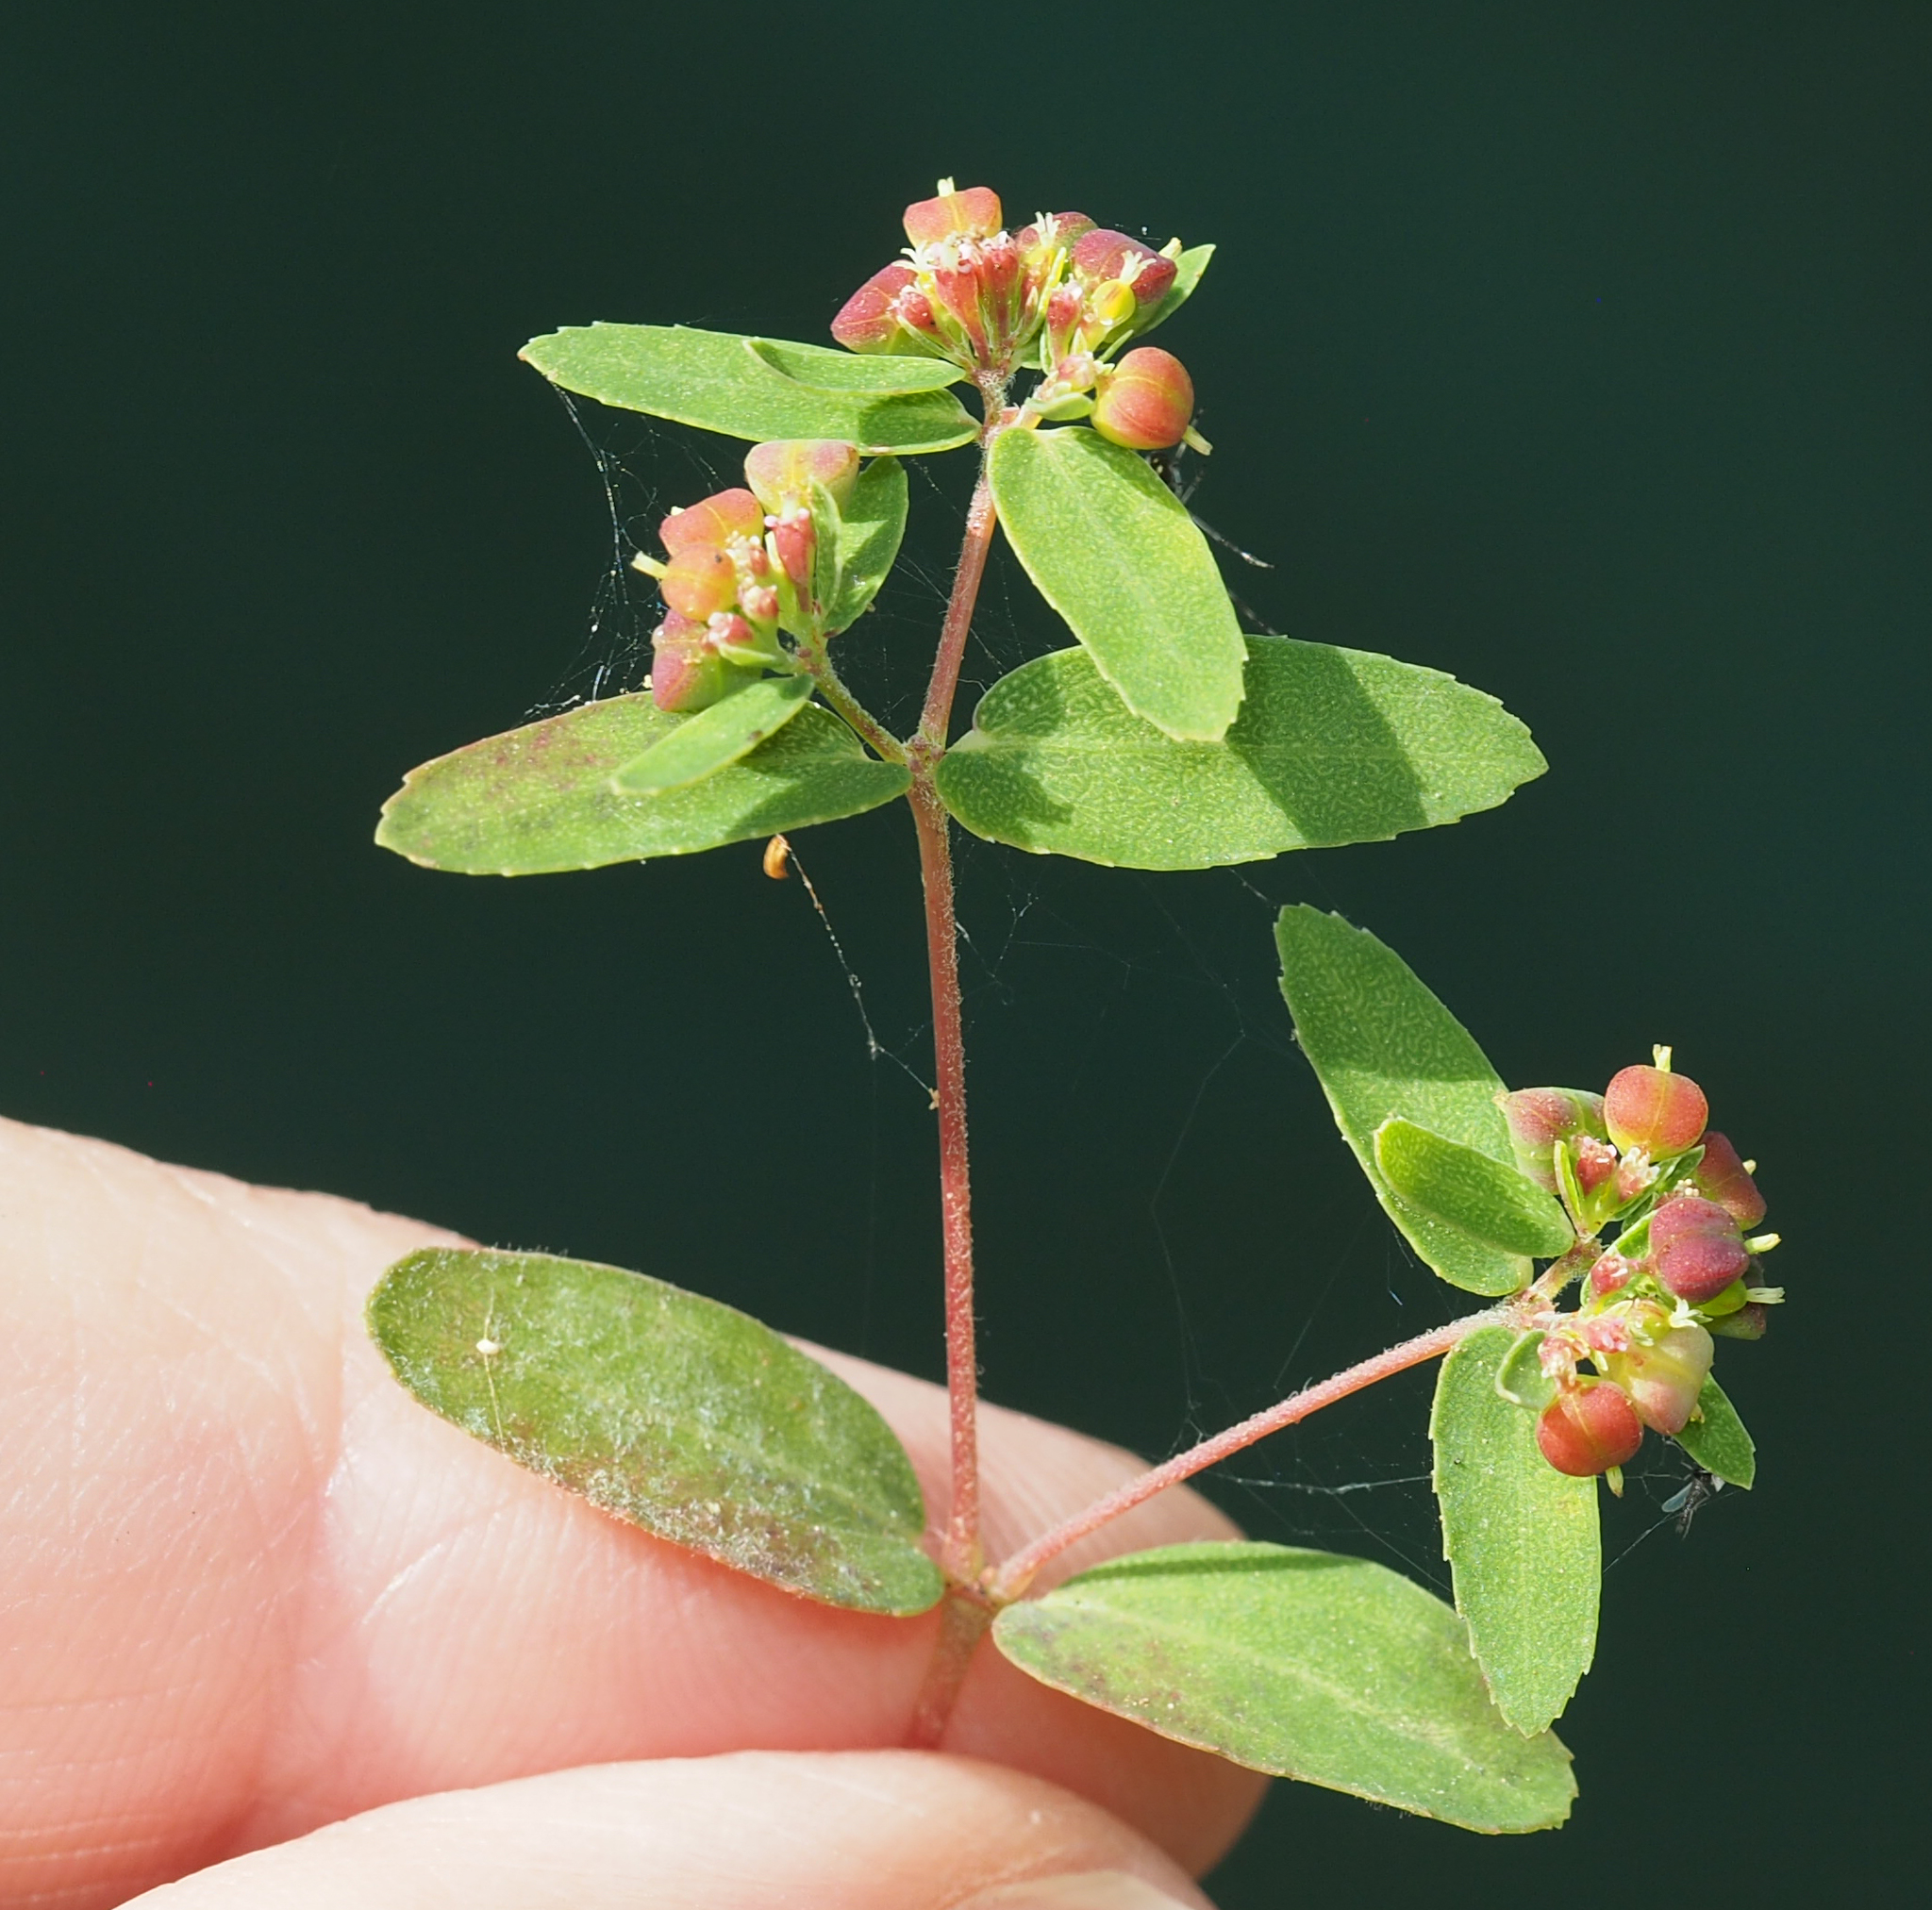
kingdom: Plantae
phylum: Tracheophyta
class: Magnoliopsida
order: Malpighiales
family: Euphorbiaceae
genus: Euphorbia
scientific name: Euphorbia nutans
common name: Eyebane
